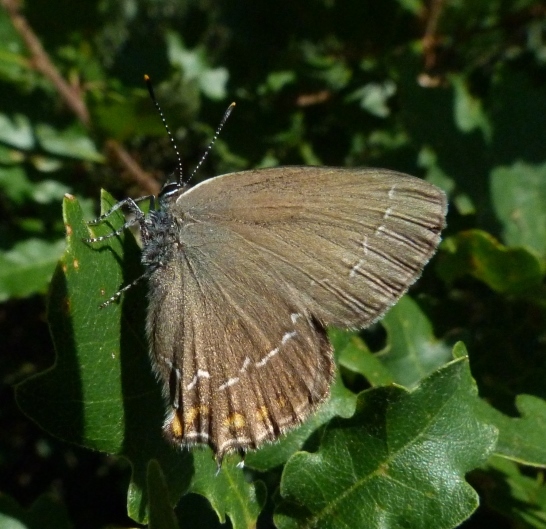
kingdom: Animalia
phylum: Arthropoda
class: Insecta
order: Lepidoptera
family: Lycaenidae
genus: Nordmannia
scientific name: Nordmannia ilicis
